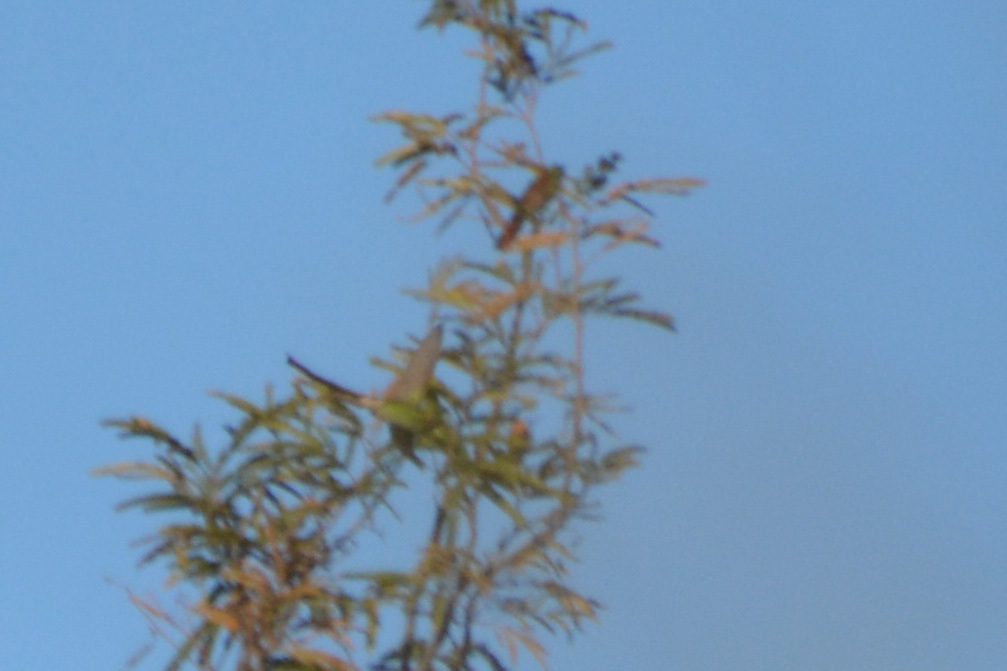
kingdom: Animalia
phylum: Chordata
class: Aves
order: Apodiformes
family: Trochilidae
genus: Sappho
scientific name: Sappho sparganurus
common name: Red-tailed comet
